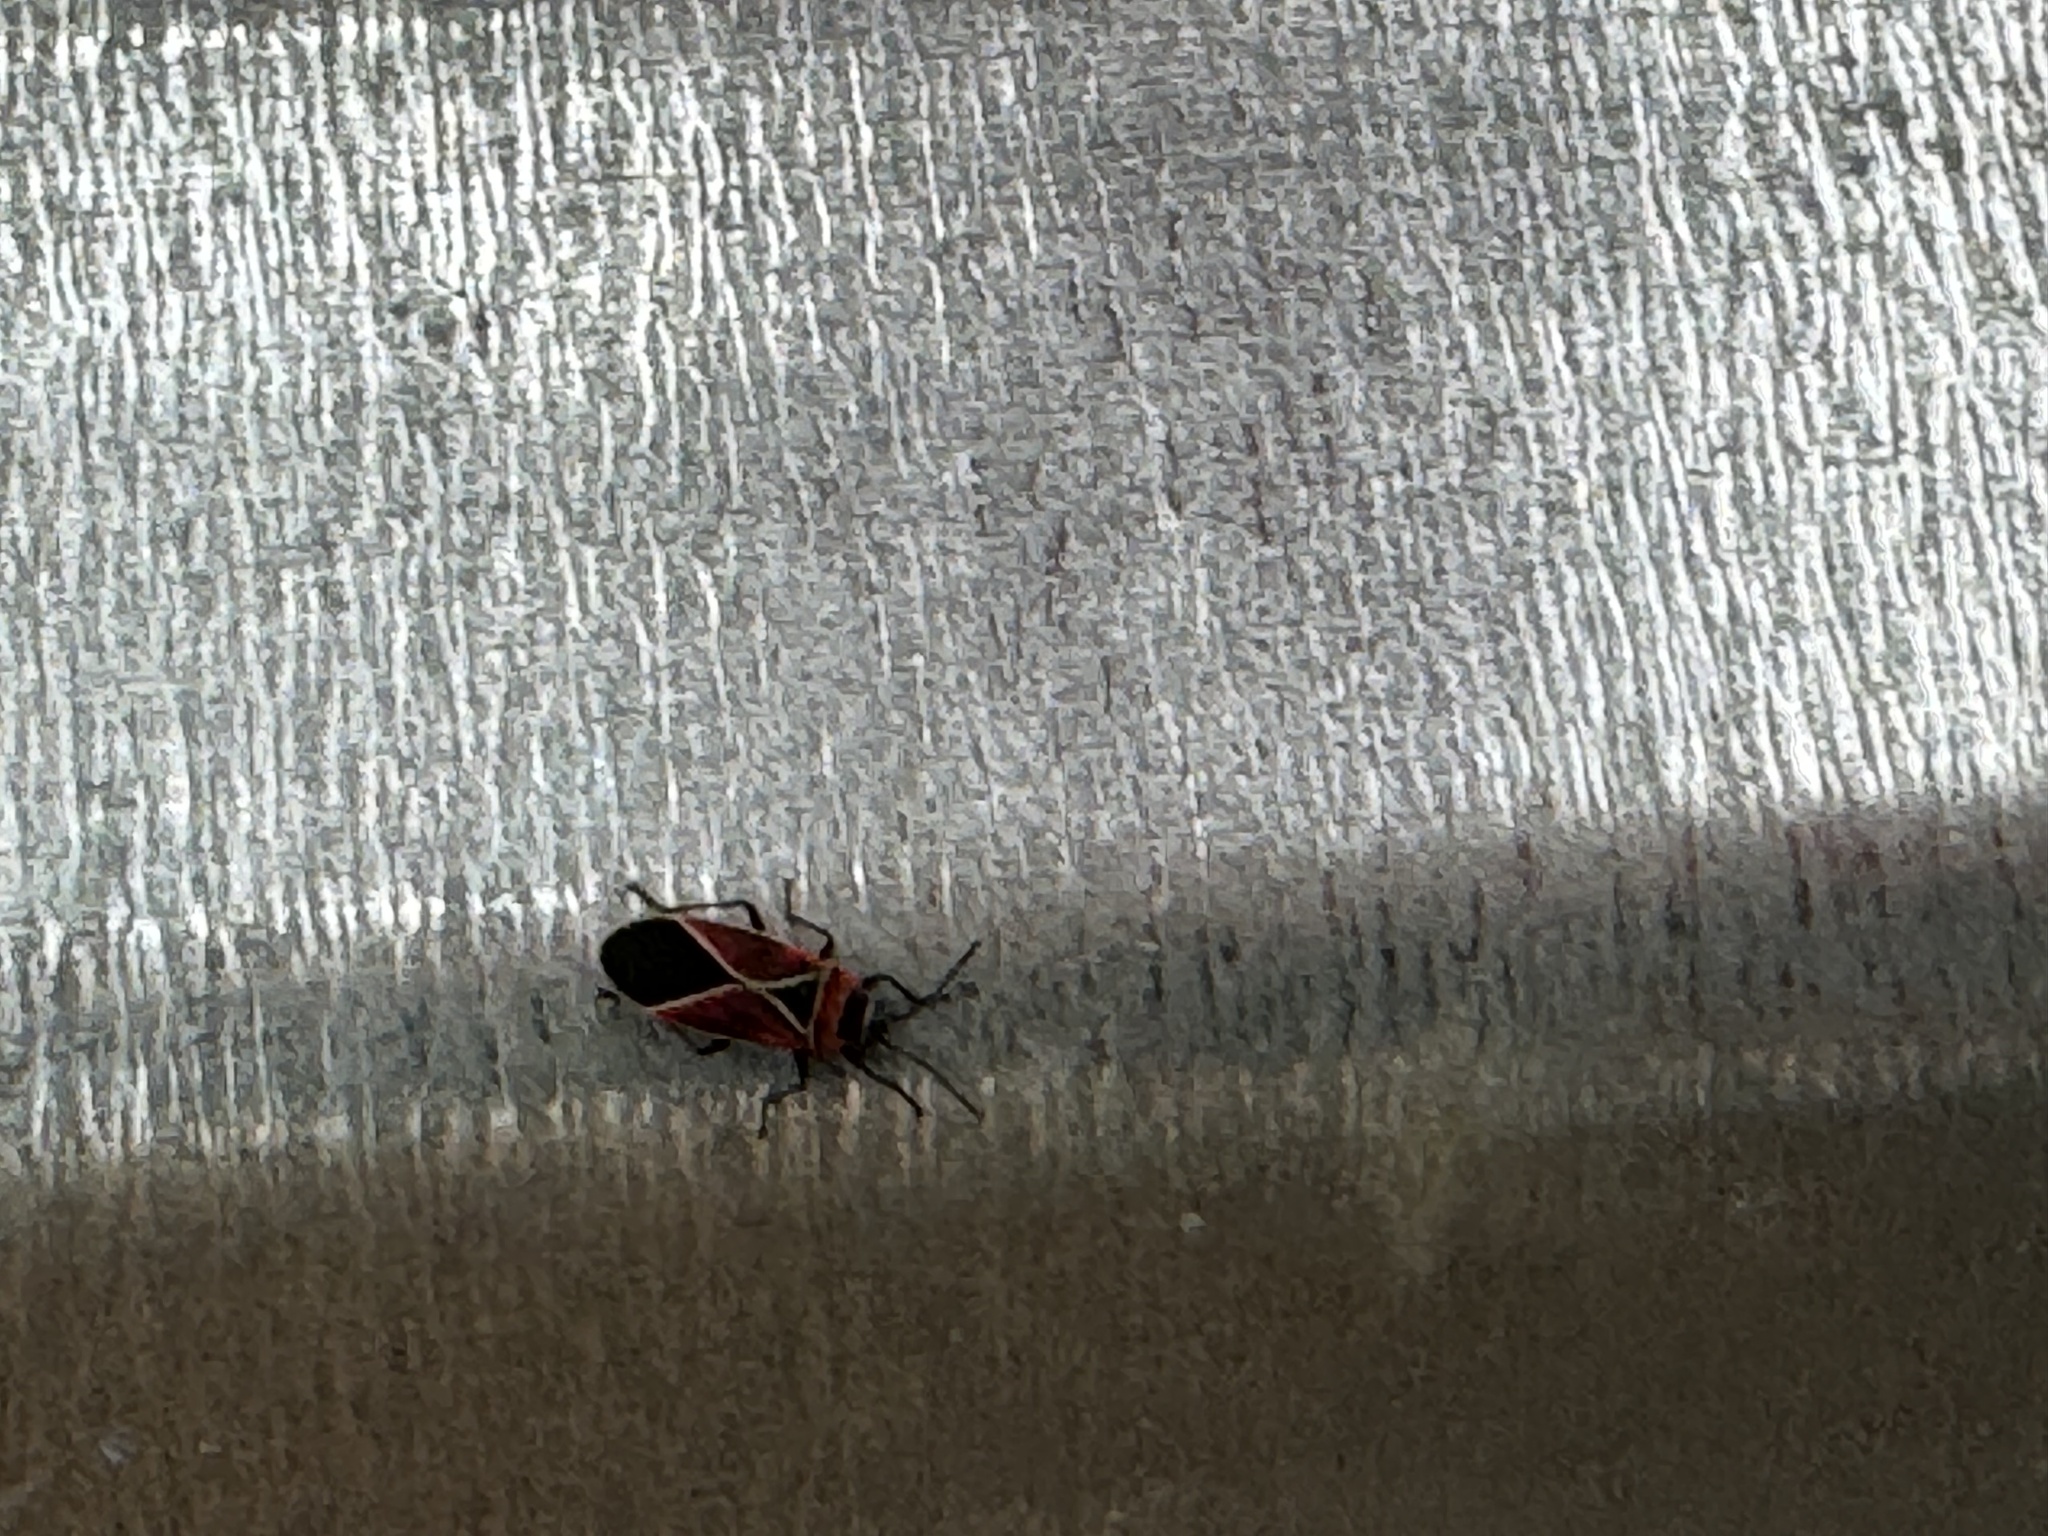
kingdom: Animalia
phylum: Arthropoda
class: Insecta
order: Hemiptera
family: Lygaeidae
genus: Neacoryphus
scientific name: Neacoryphus bicrucis
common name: Lygaeid bug
